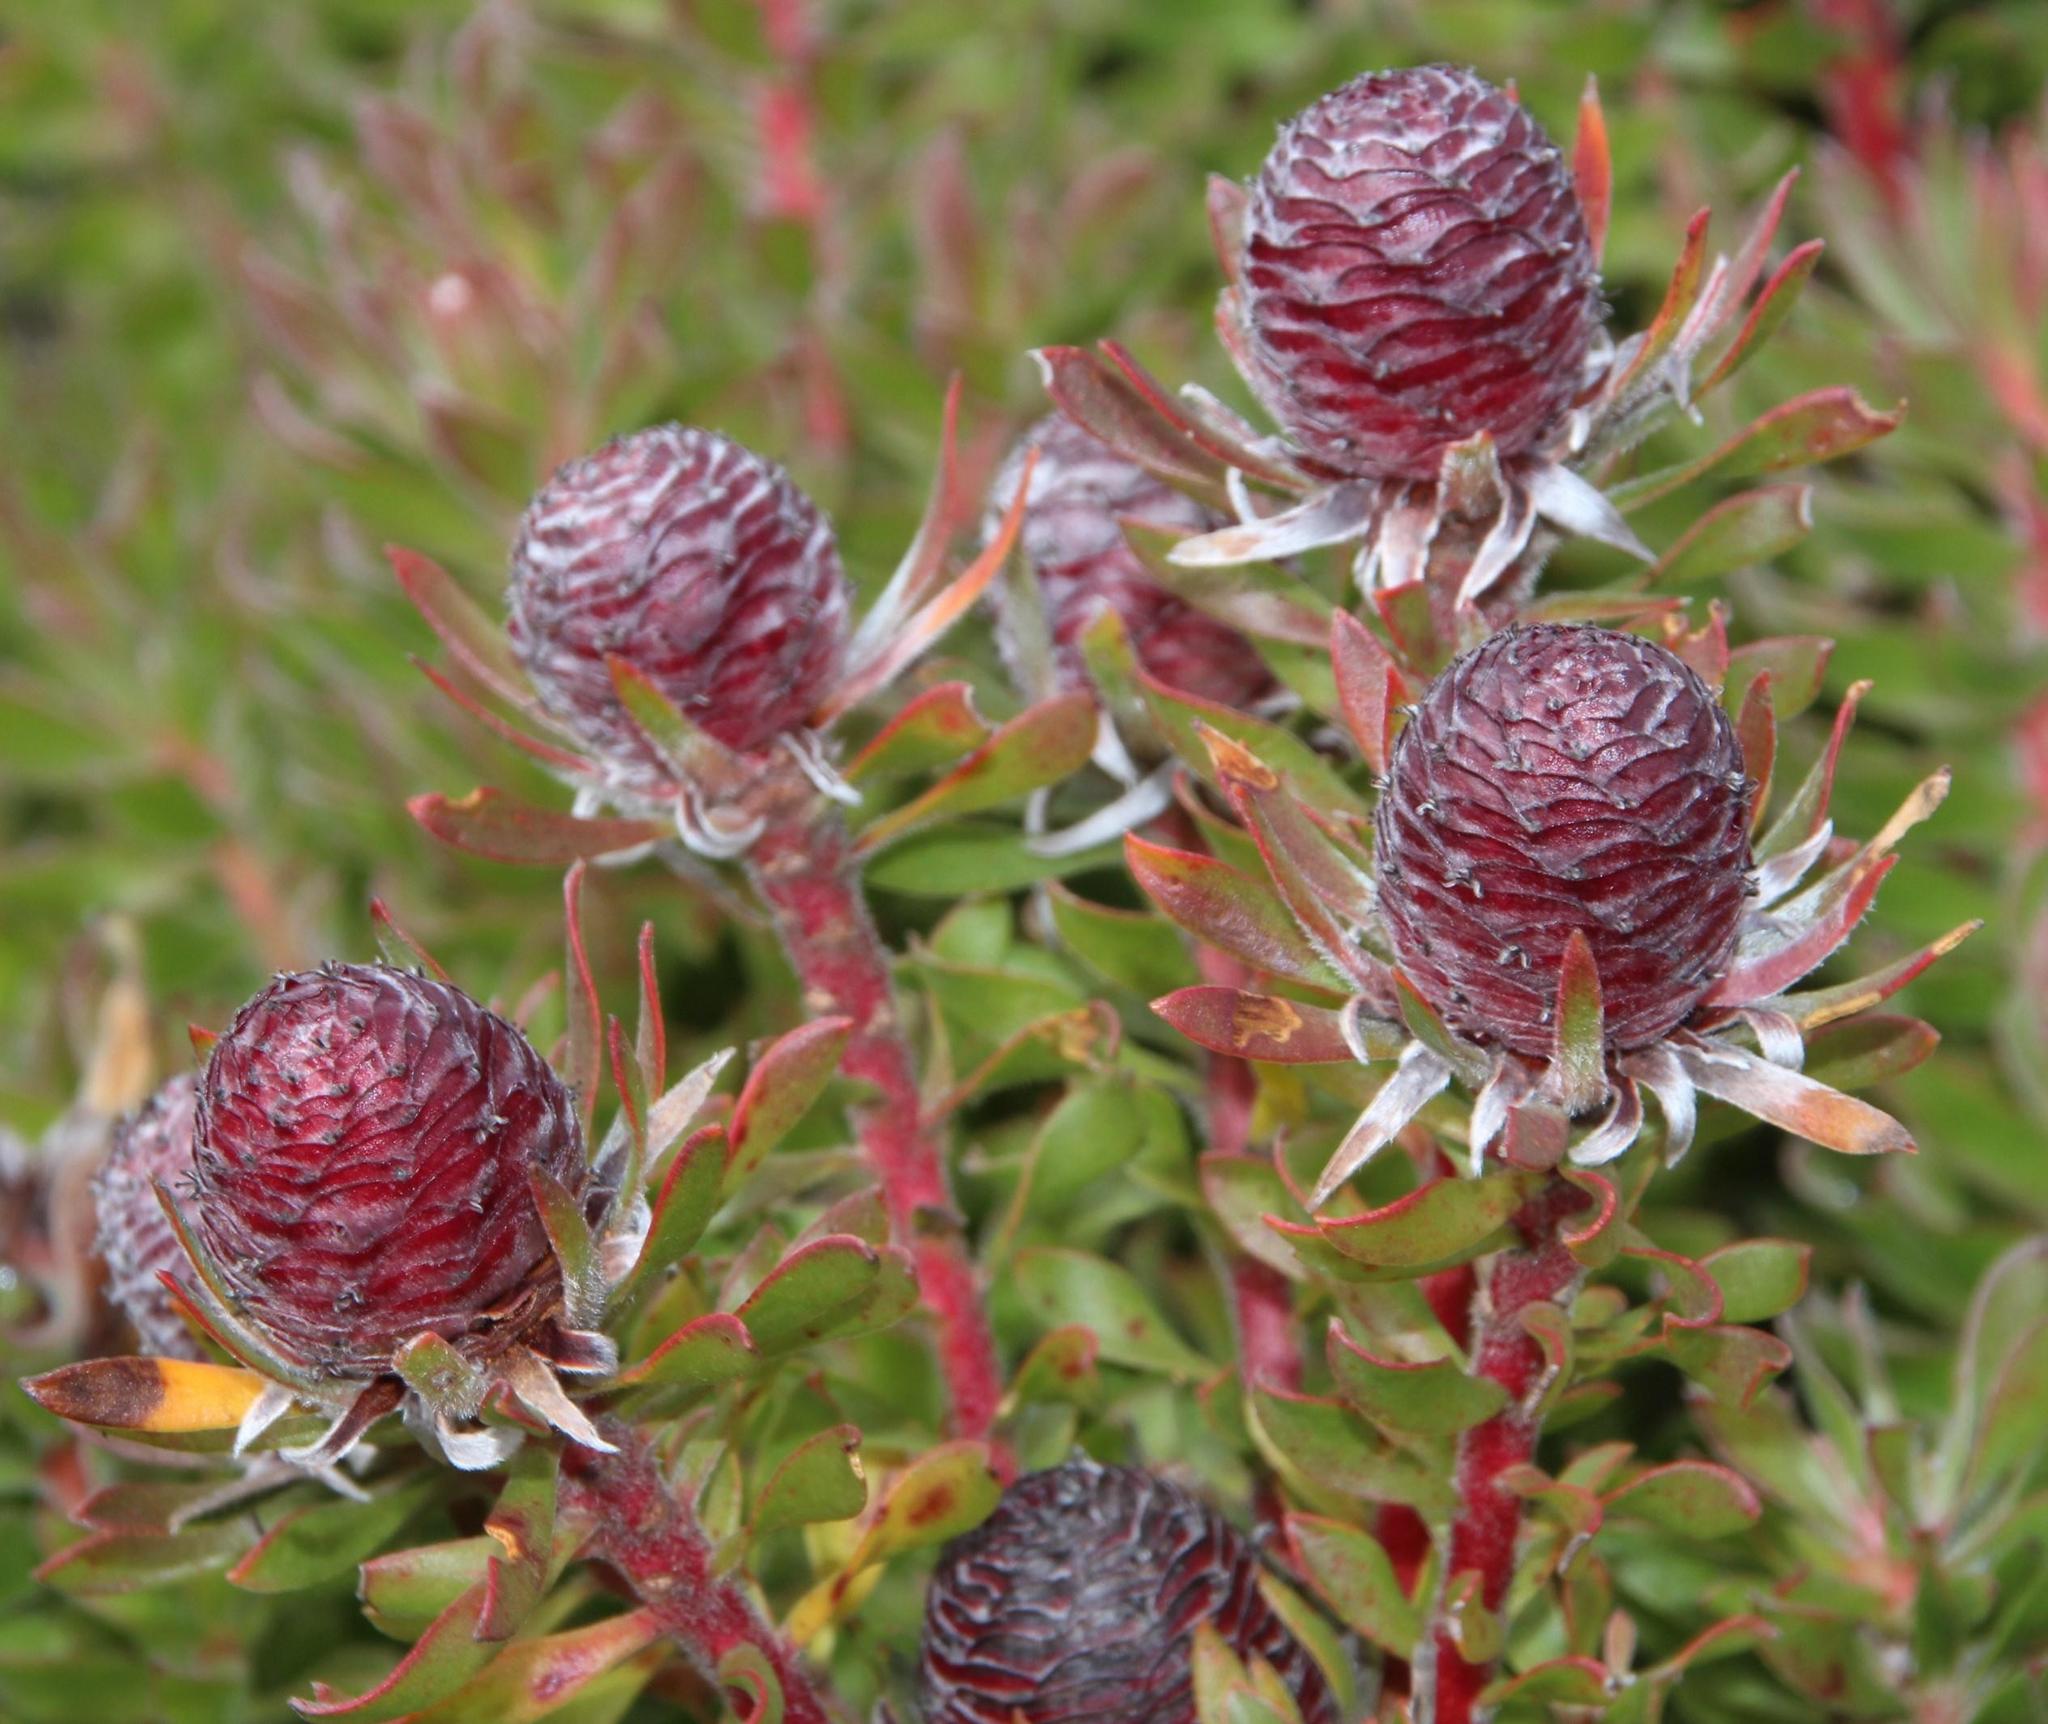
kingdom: Plantae
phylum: Tracheophyta
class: Magnoliopsida
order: Proteales
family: Proteaceae
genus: Leucadendron
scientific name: Leucadendron radiatum
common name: Langeberg conebush
